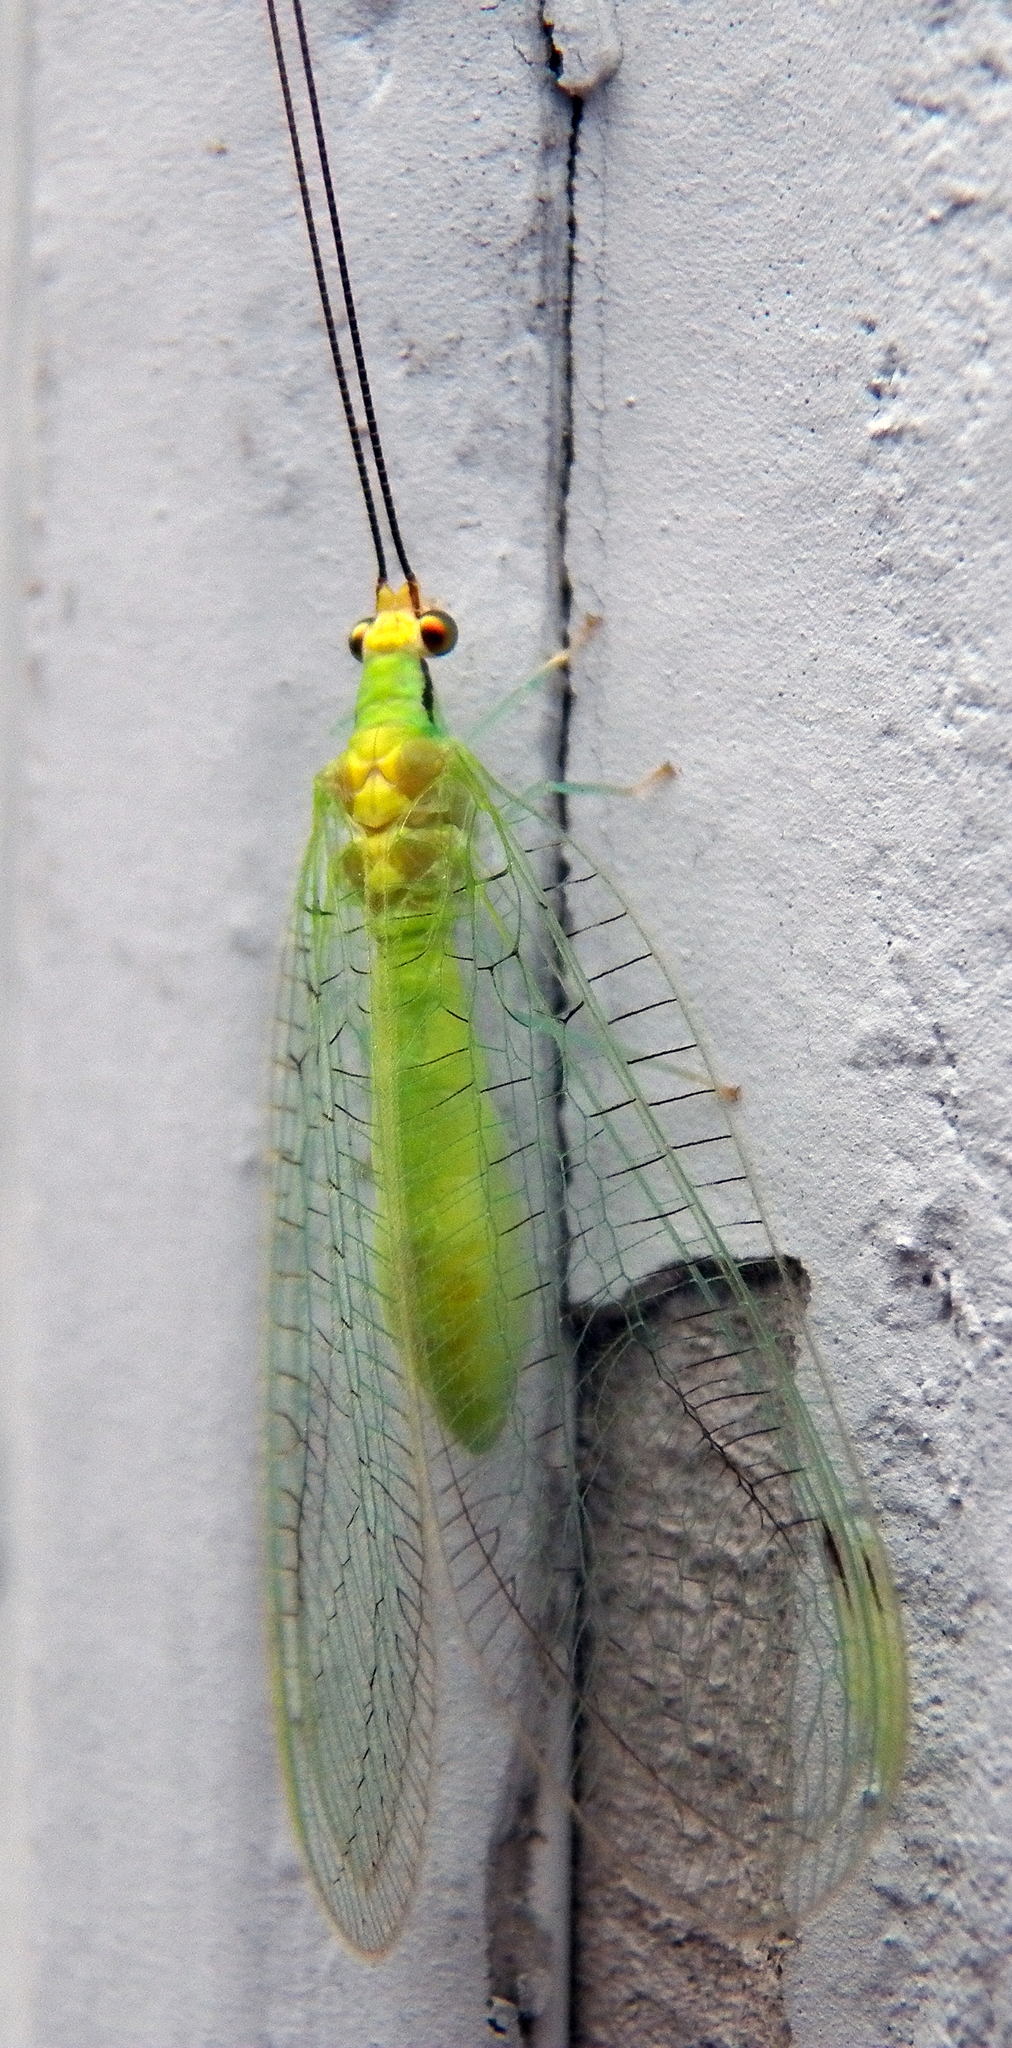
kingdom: Animalia
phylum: Arthropoda
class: Insecta
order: Neuroptera
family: Chrysopidae
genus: Leucochrysa
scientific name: Leucochrysa pavida
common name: Lichen-carrying green lacewing
